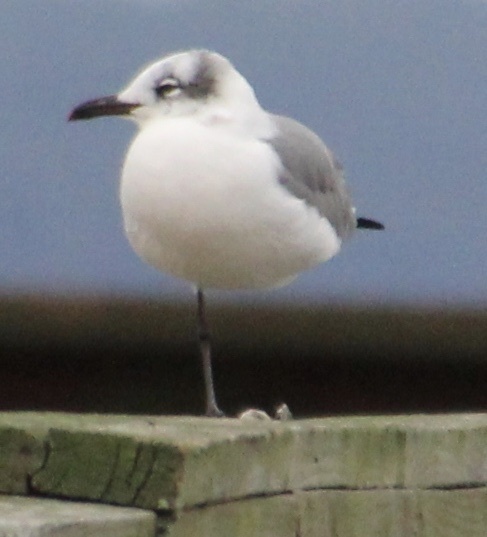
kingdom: Animalia
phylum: Chordata
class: Aves
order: Charadriiformes
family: Laridae
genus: Leucophaeus
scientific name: Leucophaeus atricilla
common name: Laughing gull
